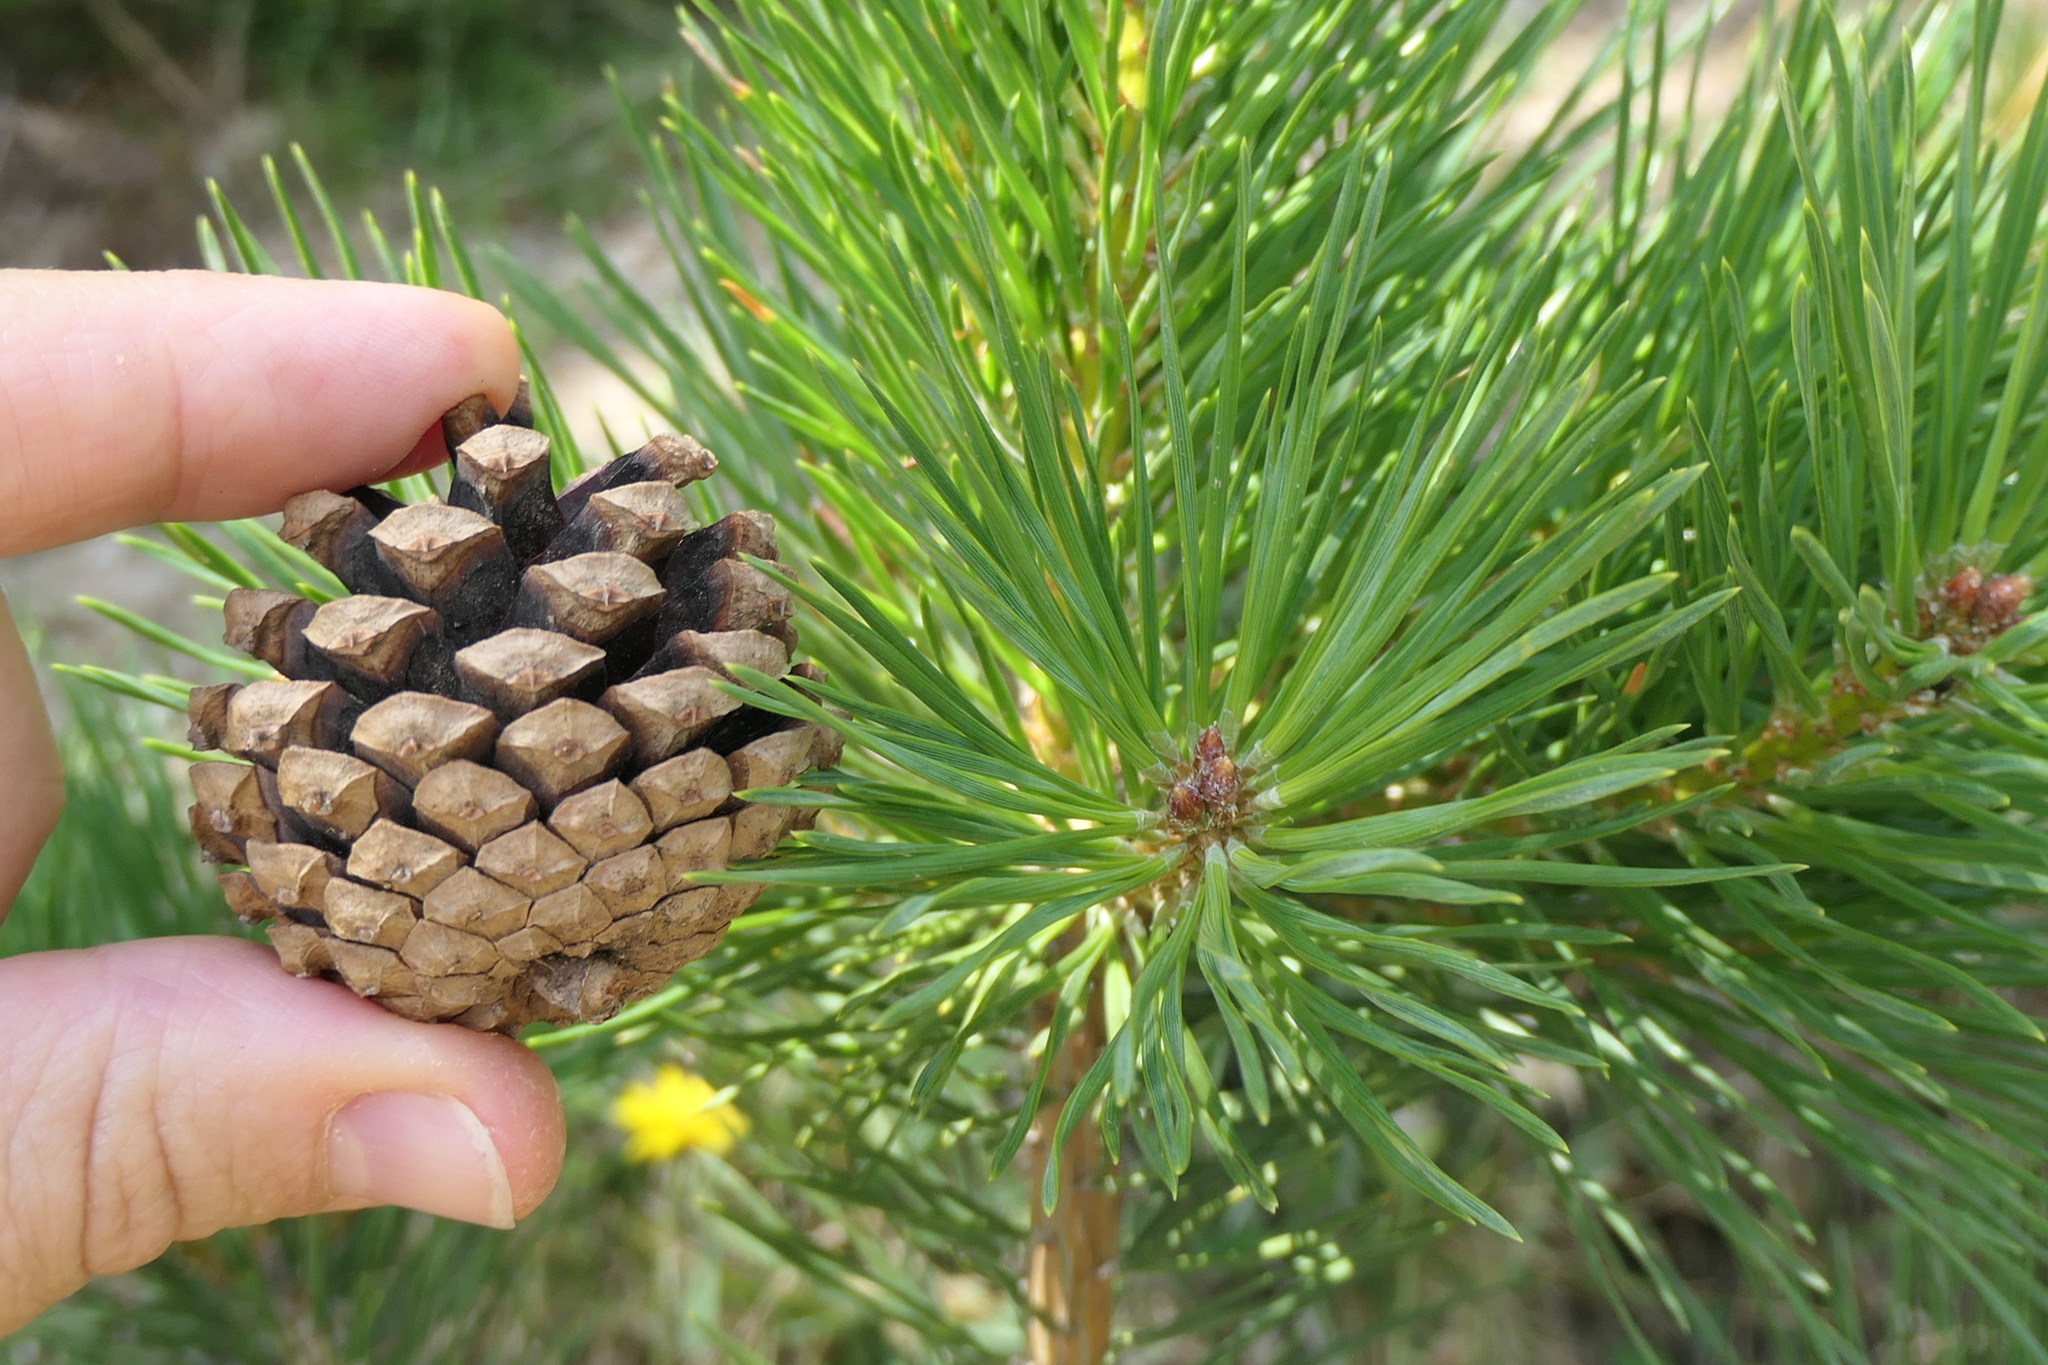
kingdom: Plantae
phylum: Tracheophyta
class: Pinopsida
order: Pinales
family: Pinaceae
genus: Pinus
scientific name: Pinus sylvestris
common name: Scots pine
